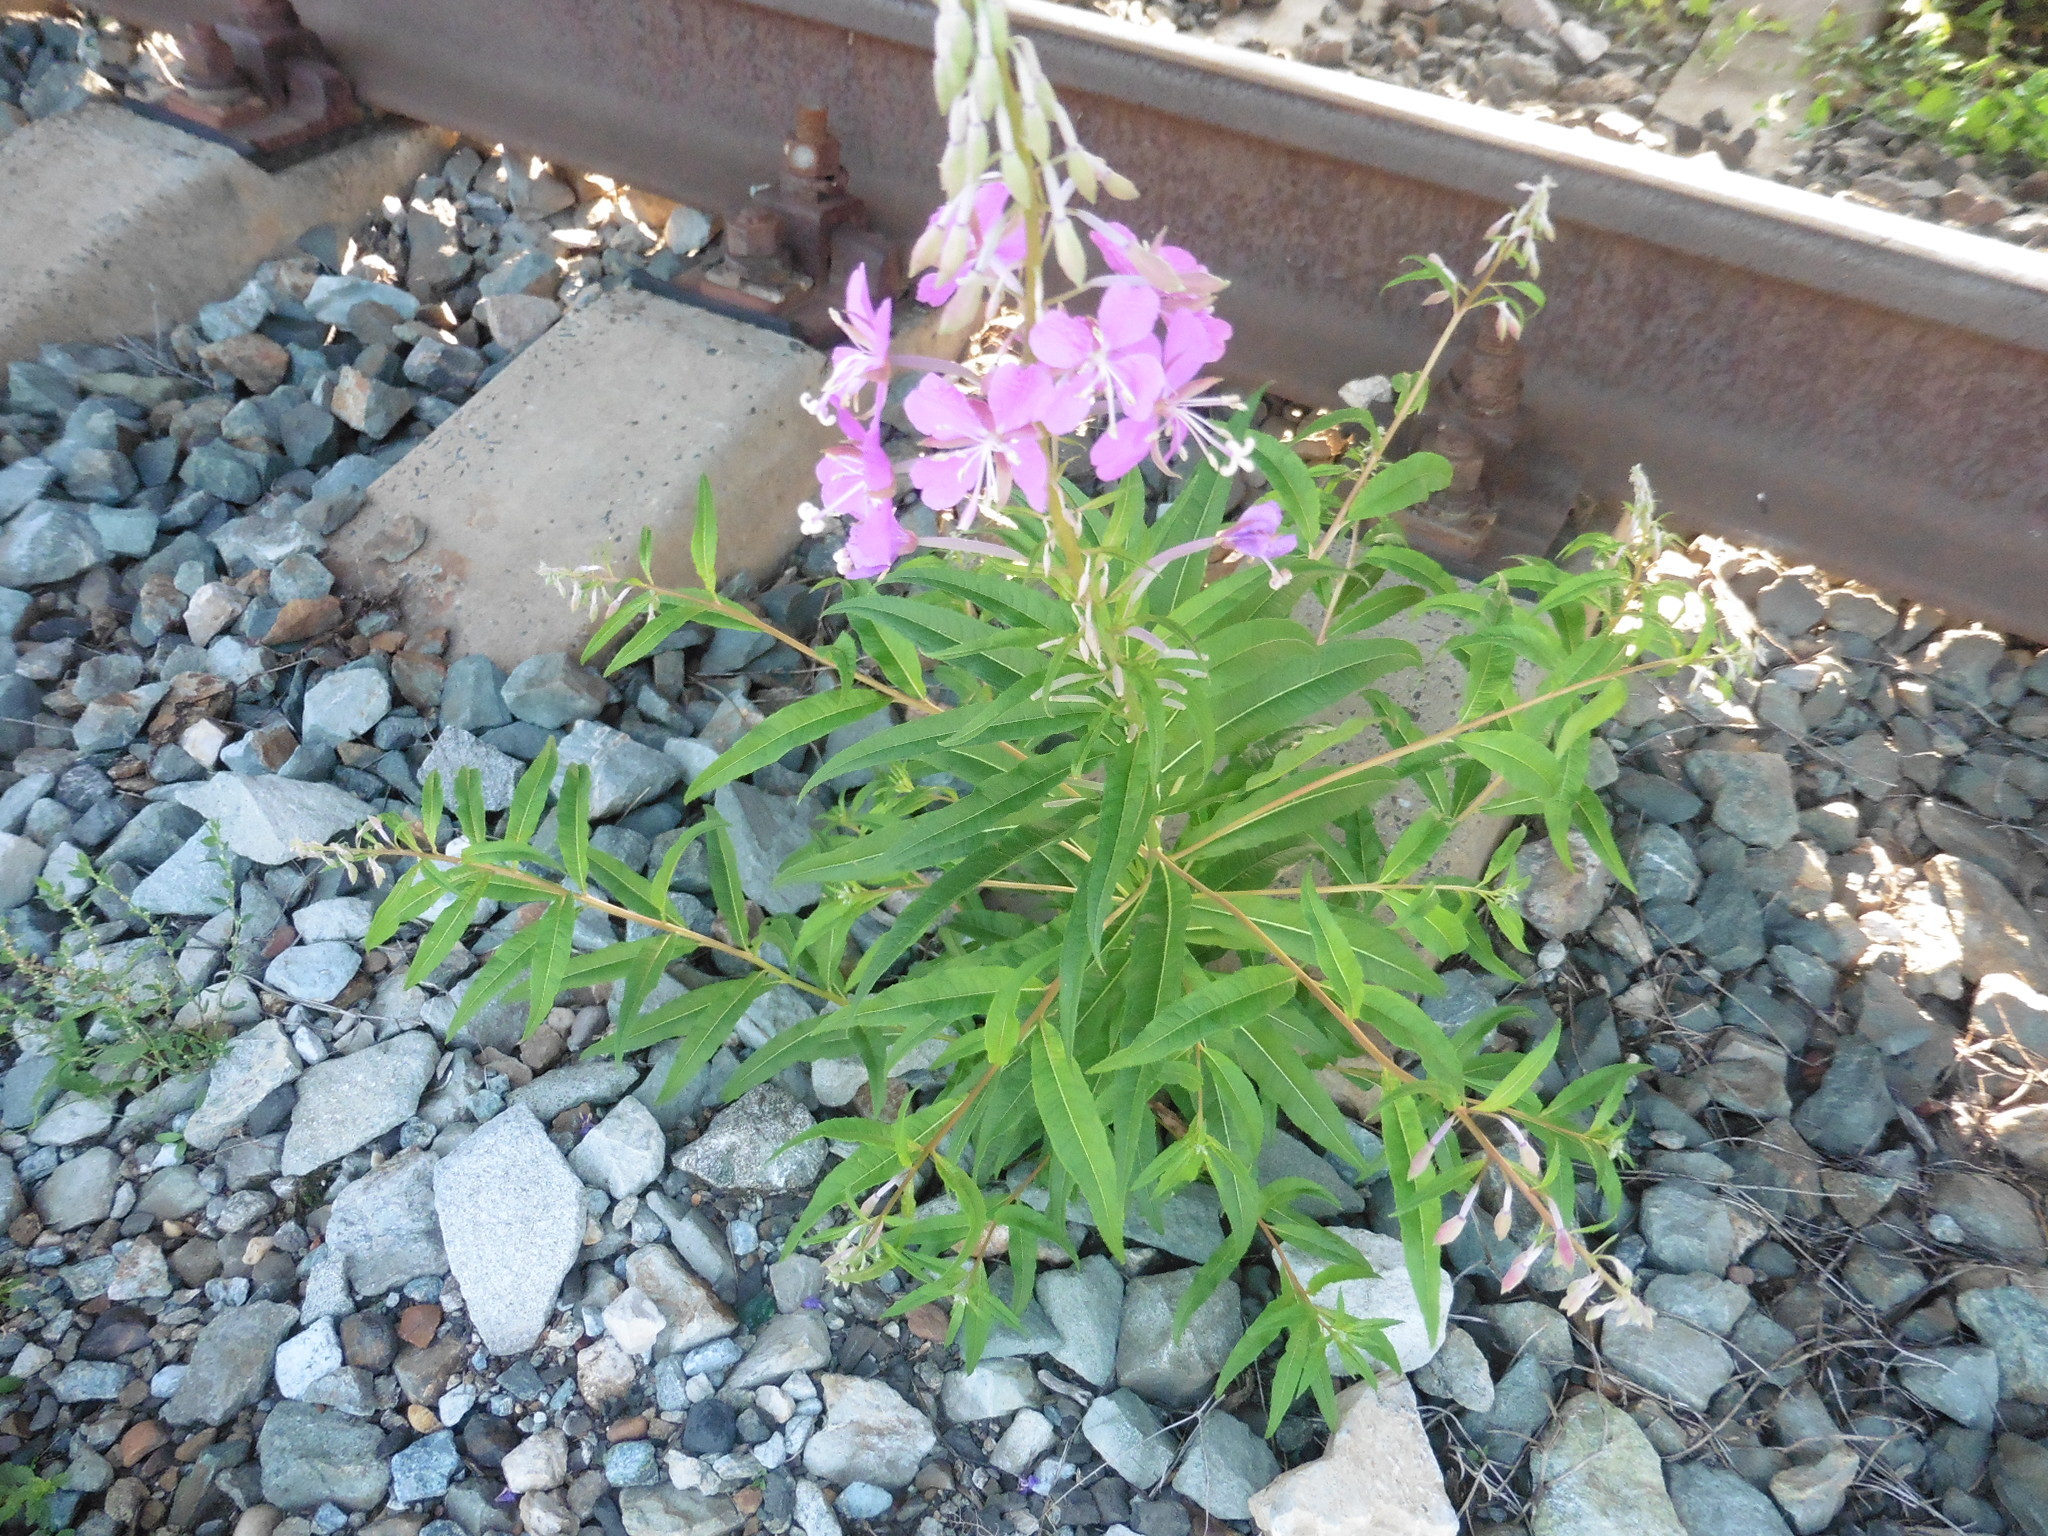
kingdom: Plantae
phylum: Tracheophyta
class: Magnoliopsida
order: Myrtales
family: Onagraceae
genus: Chamaenerion
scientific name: Chamaenerion angustifolium
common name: Fireweed
